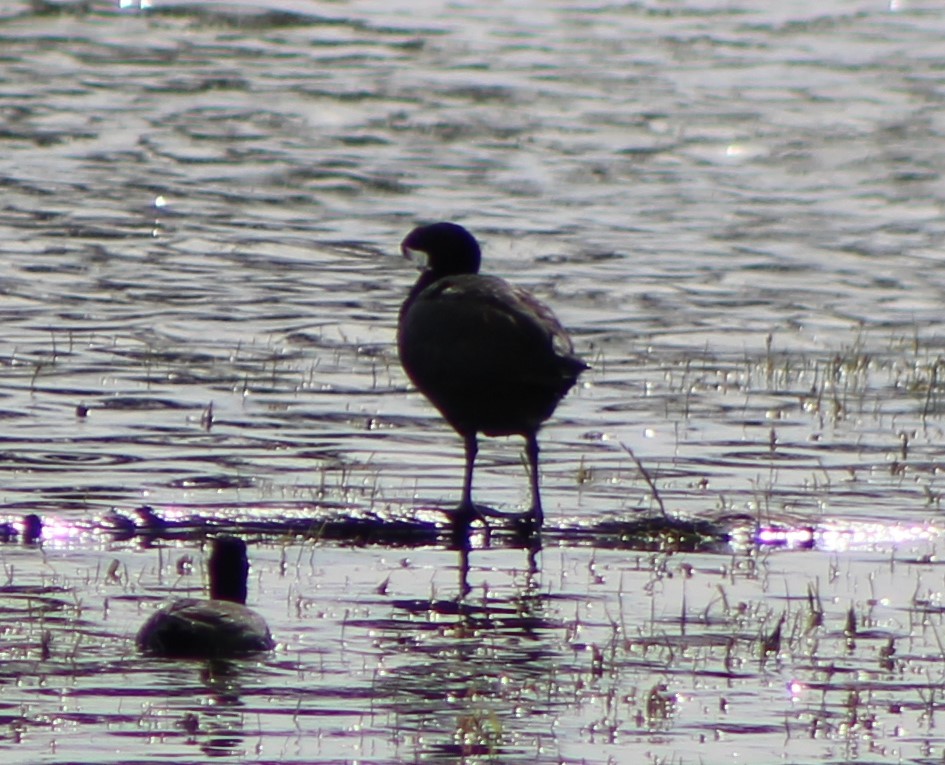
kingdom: Animalia
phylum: Chordata
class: Aves
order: Gruiformes
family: Rallidae
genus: Fulica
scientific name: Fulica americana
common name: American coot
